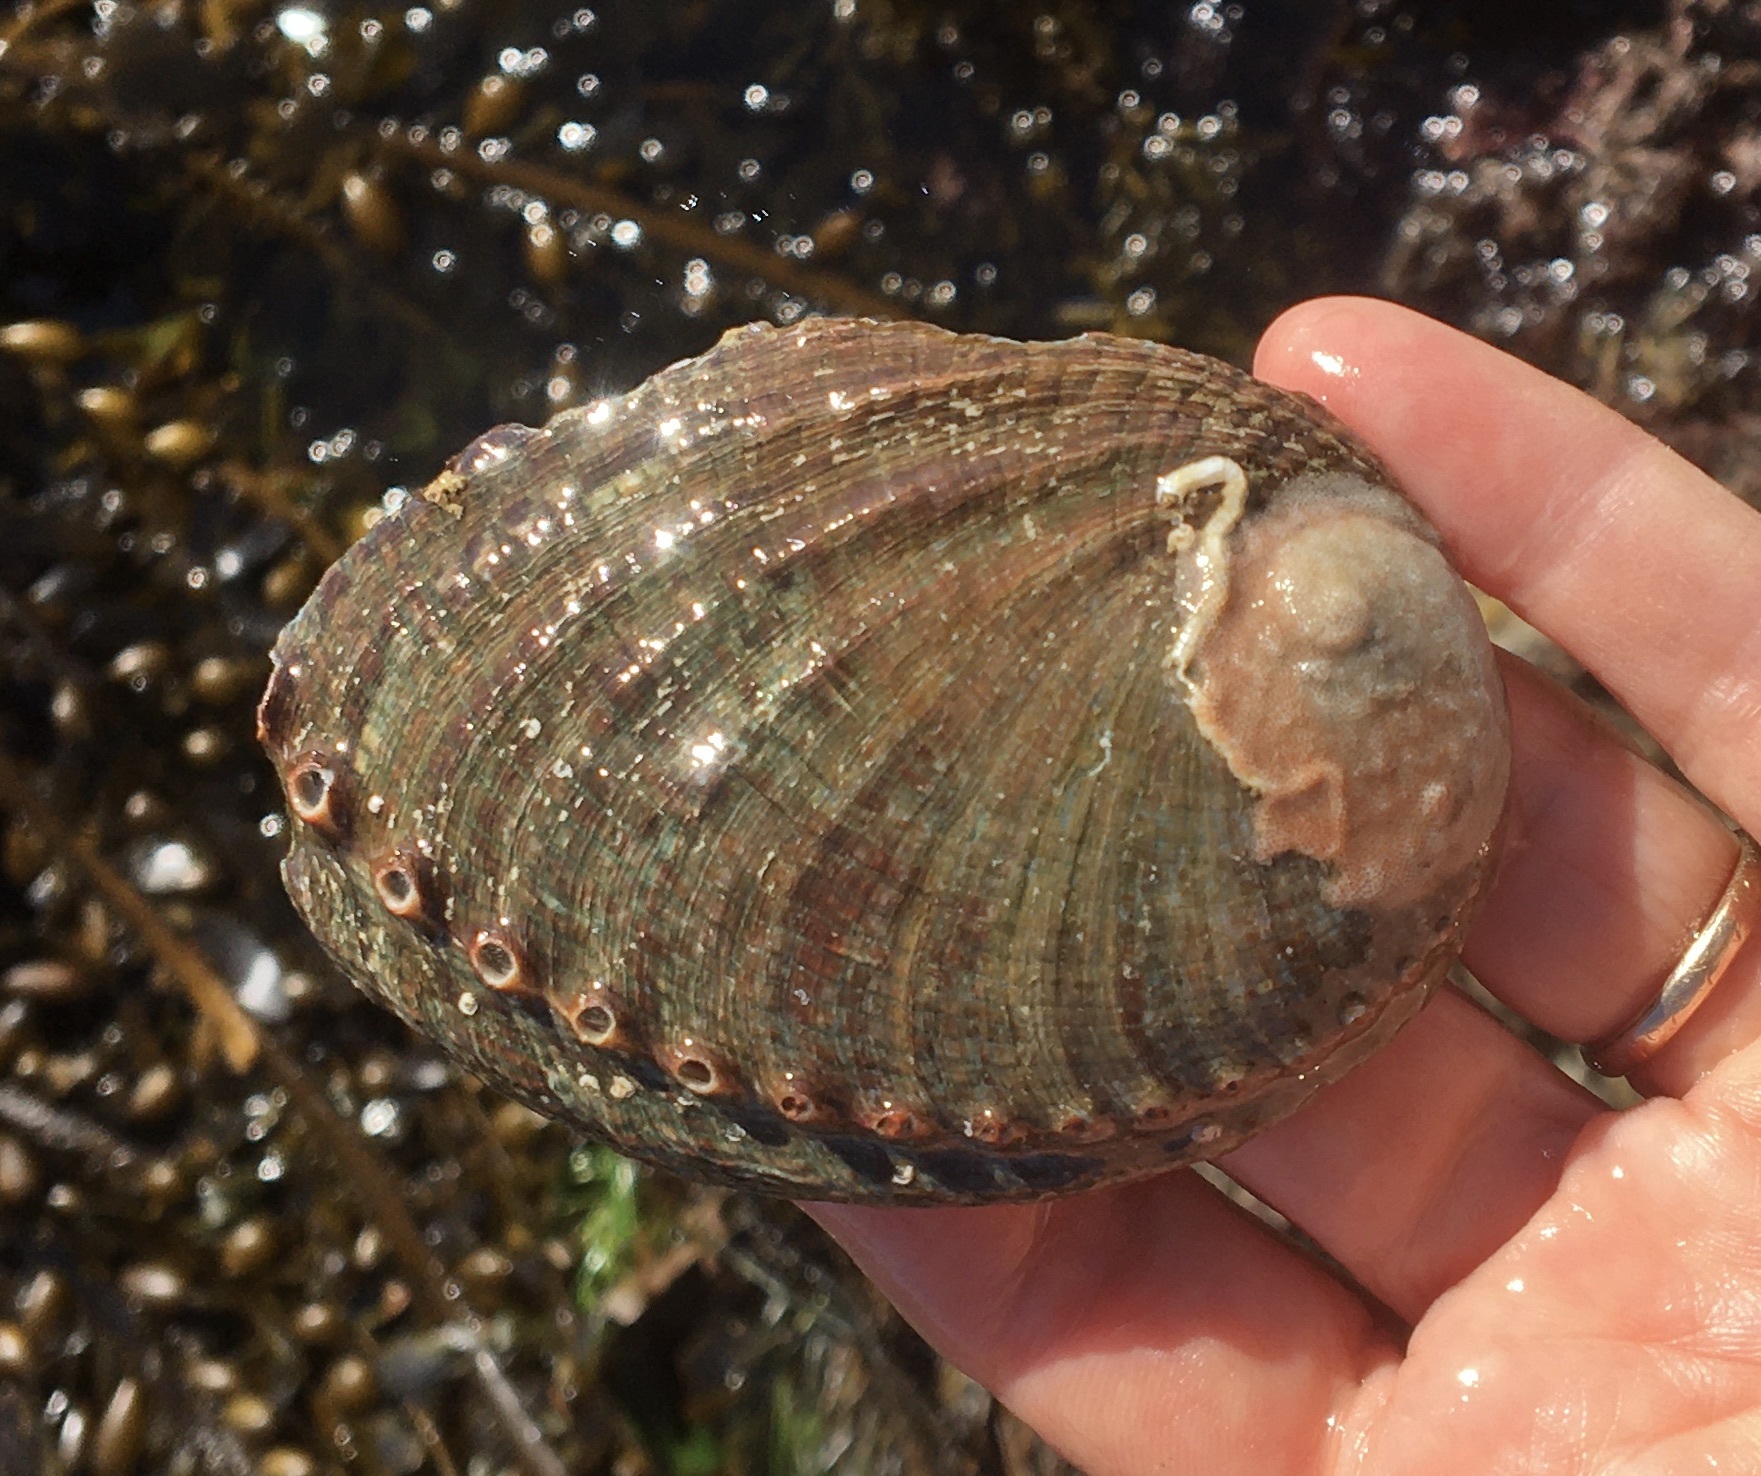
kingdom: Animalia
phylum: Mollusca
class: Gastropoda
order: Lepetellida
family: Haliotidae
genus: Haliotis
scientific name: Haliotis fulgens
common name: Green abalone
